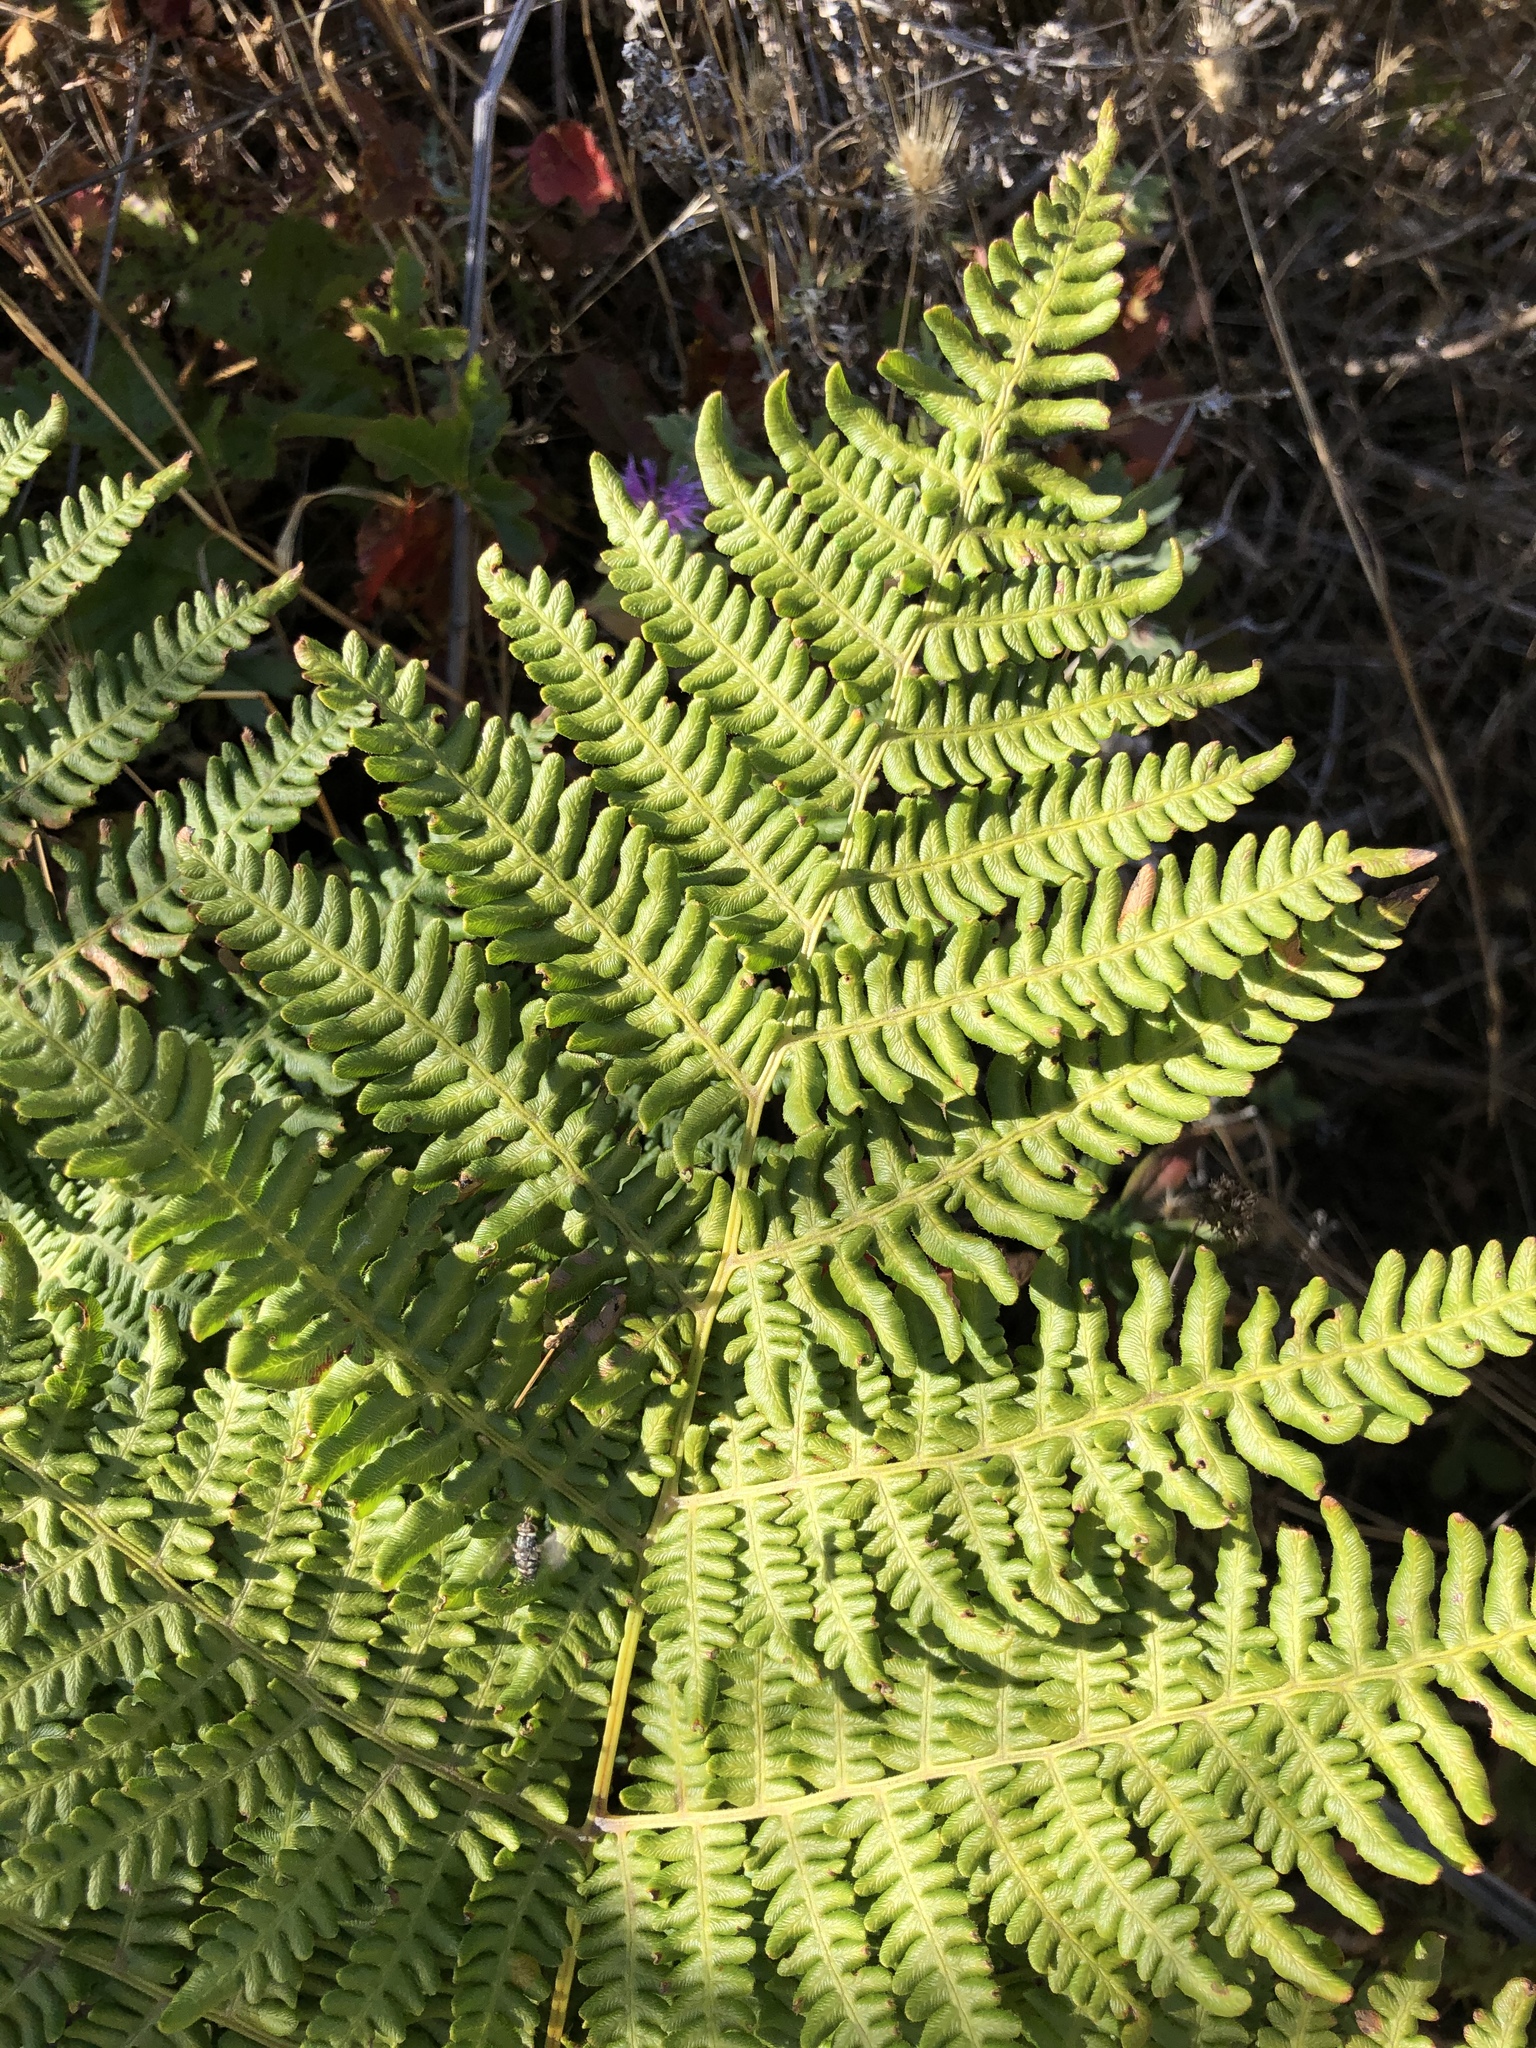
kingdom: Plantae
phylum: Tracheophyta
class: Polypodiopsida
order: Polypodiales
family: Dennstaedtiaceae
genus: Pteridium
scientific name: Pteridium aquilinum
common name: Bracken
